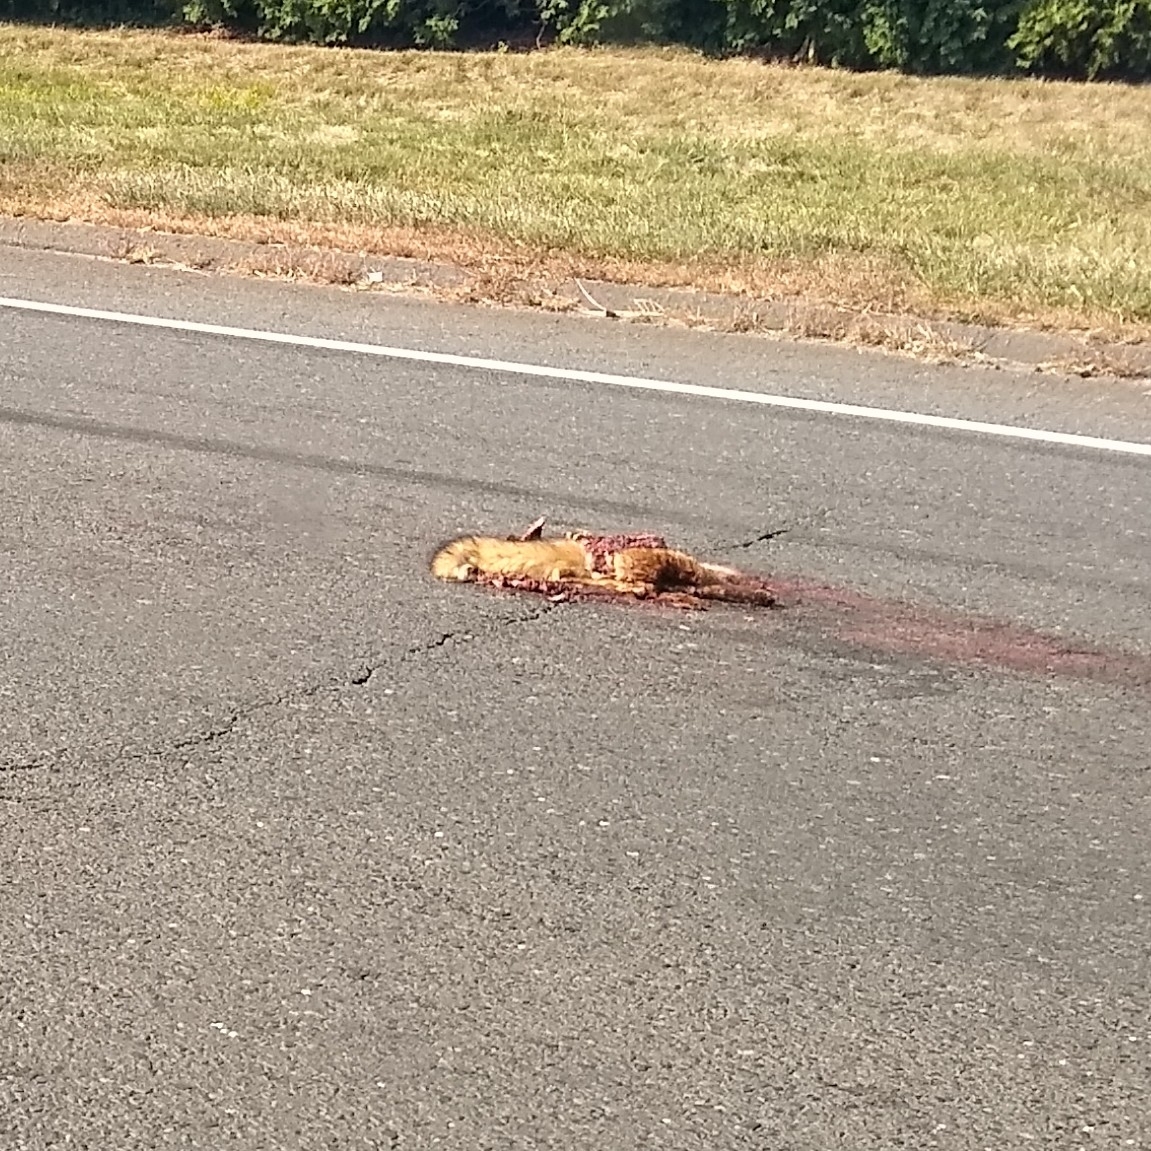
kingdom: Animalia
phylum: Chordata
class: Mammalia
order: Carnivora
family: Canidae
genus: Vulpes
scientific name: Vulpes vulpes
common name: Red fox
